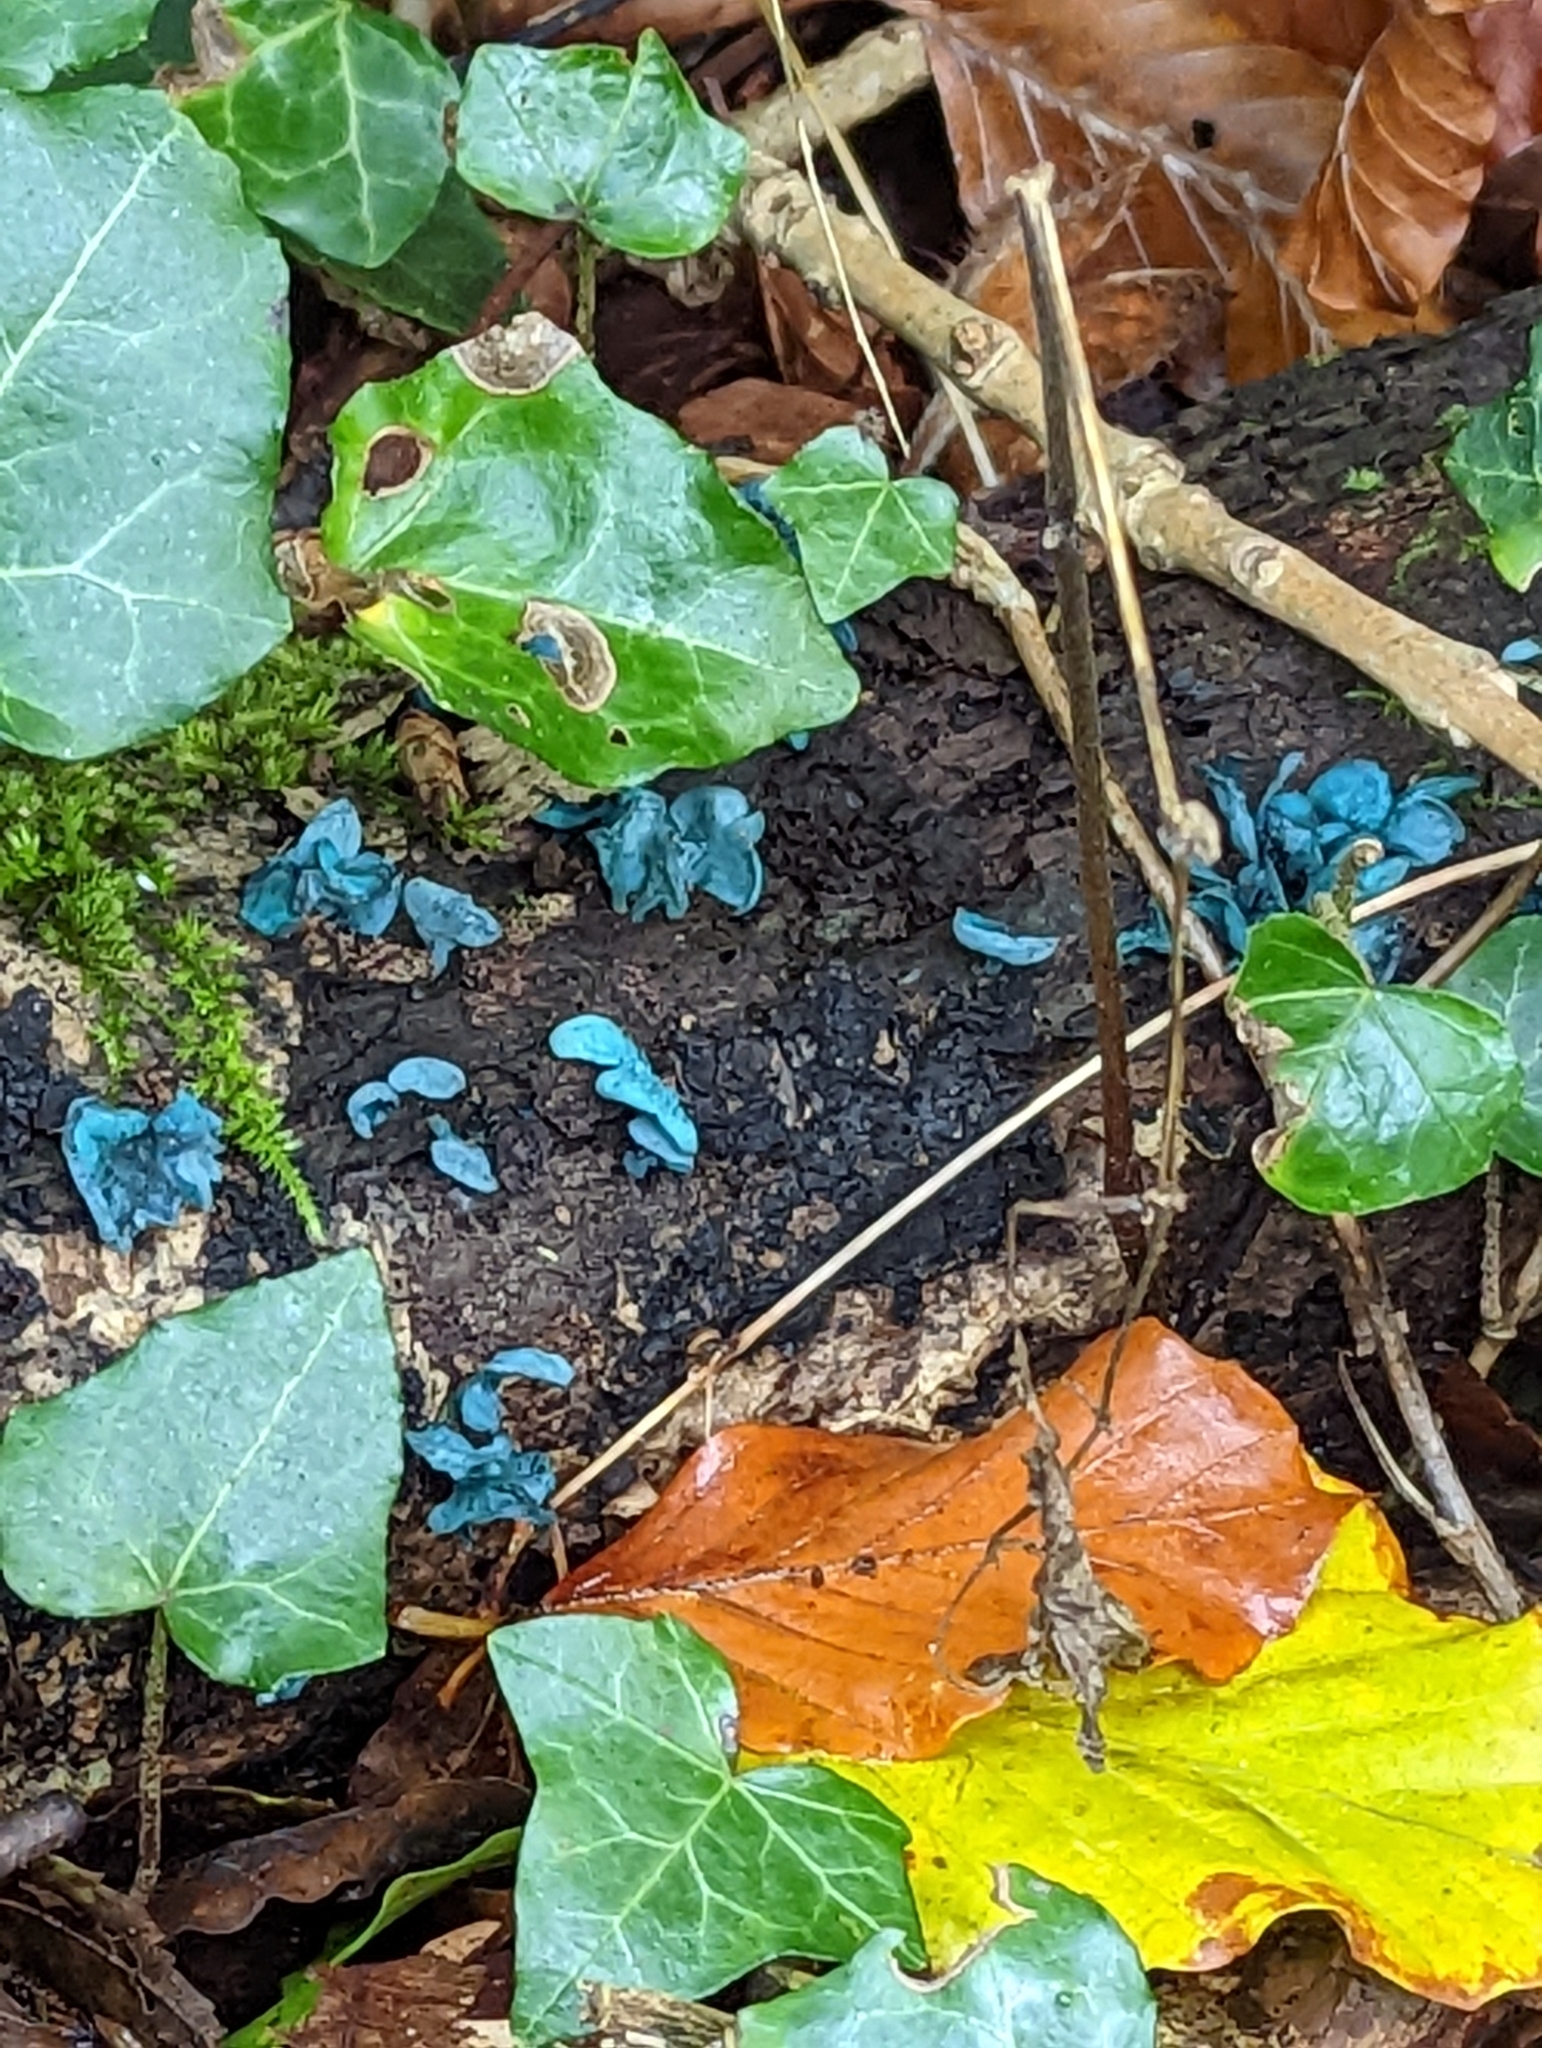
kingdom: Fungi
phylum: Ascomycota
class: Leotiomycetes
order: Helotiales
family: Chlorociboriaceae
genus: Chlorociboria
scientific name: Chlorociboria aeruginascens
